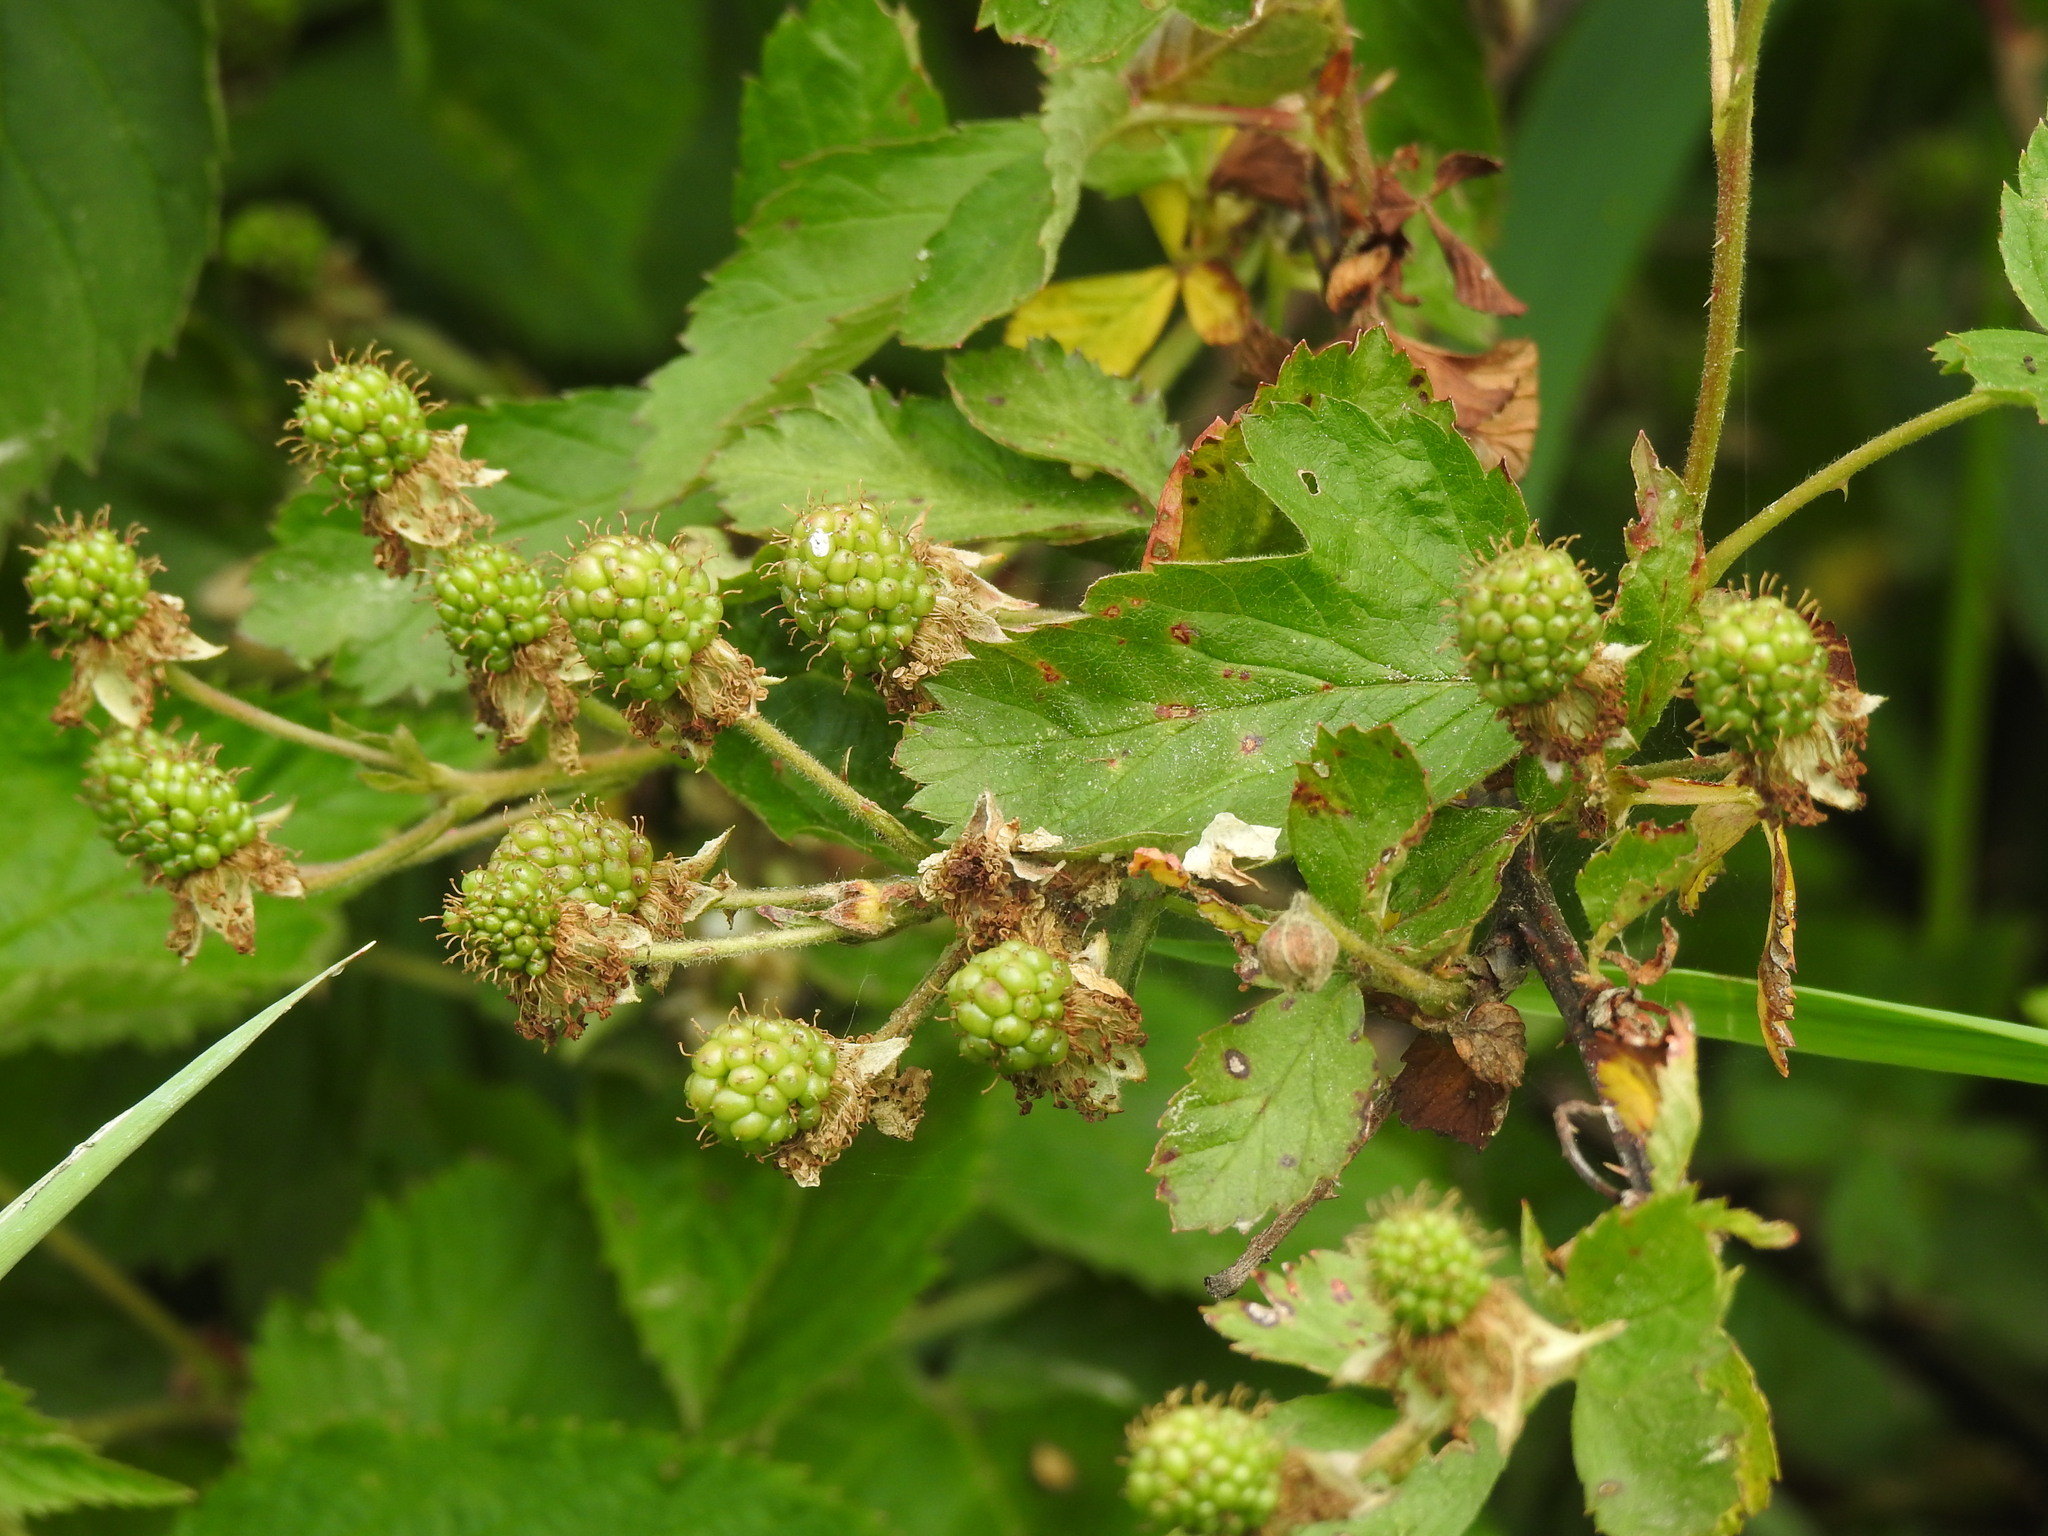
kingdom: Plantae
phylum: Tracheophyta
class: Magnoliopsida
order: Rosales
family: Rosaceae
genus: Rubus
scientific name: Rubus allegheniensis
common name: Allegheny blackberry
